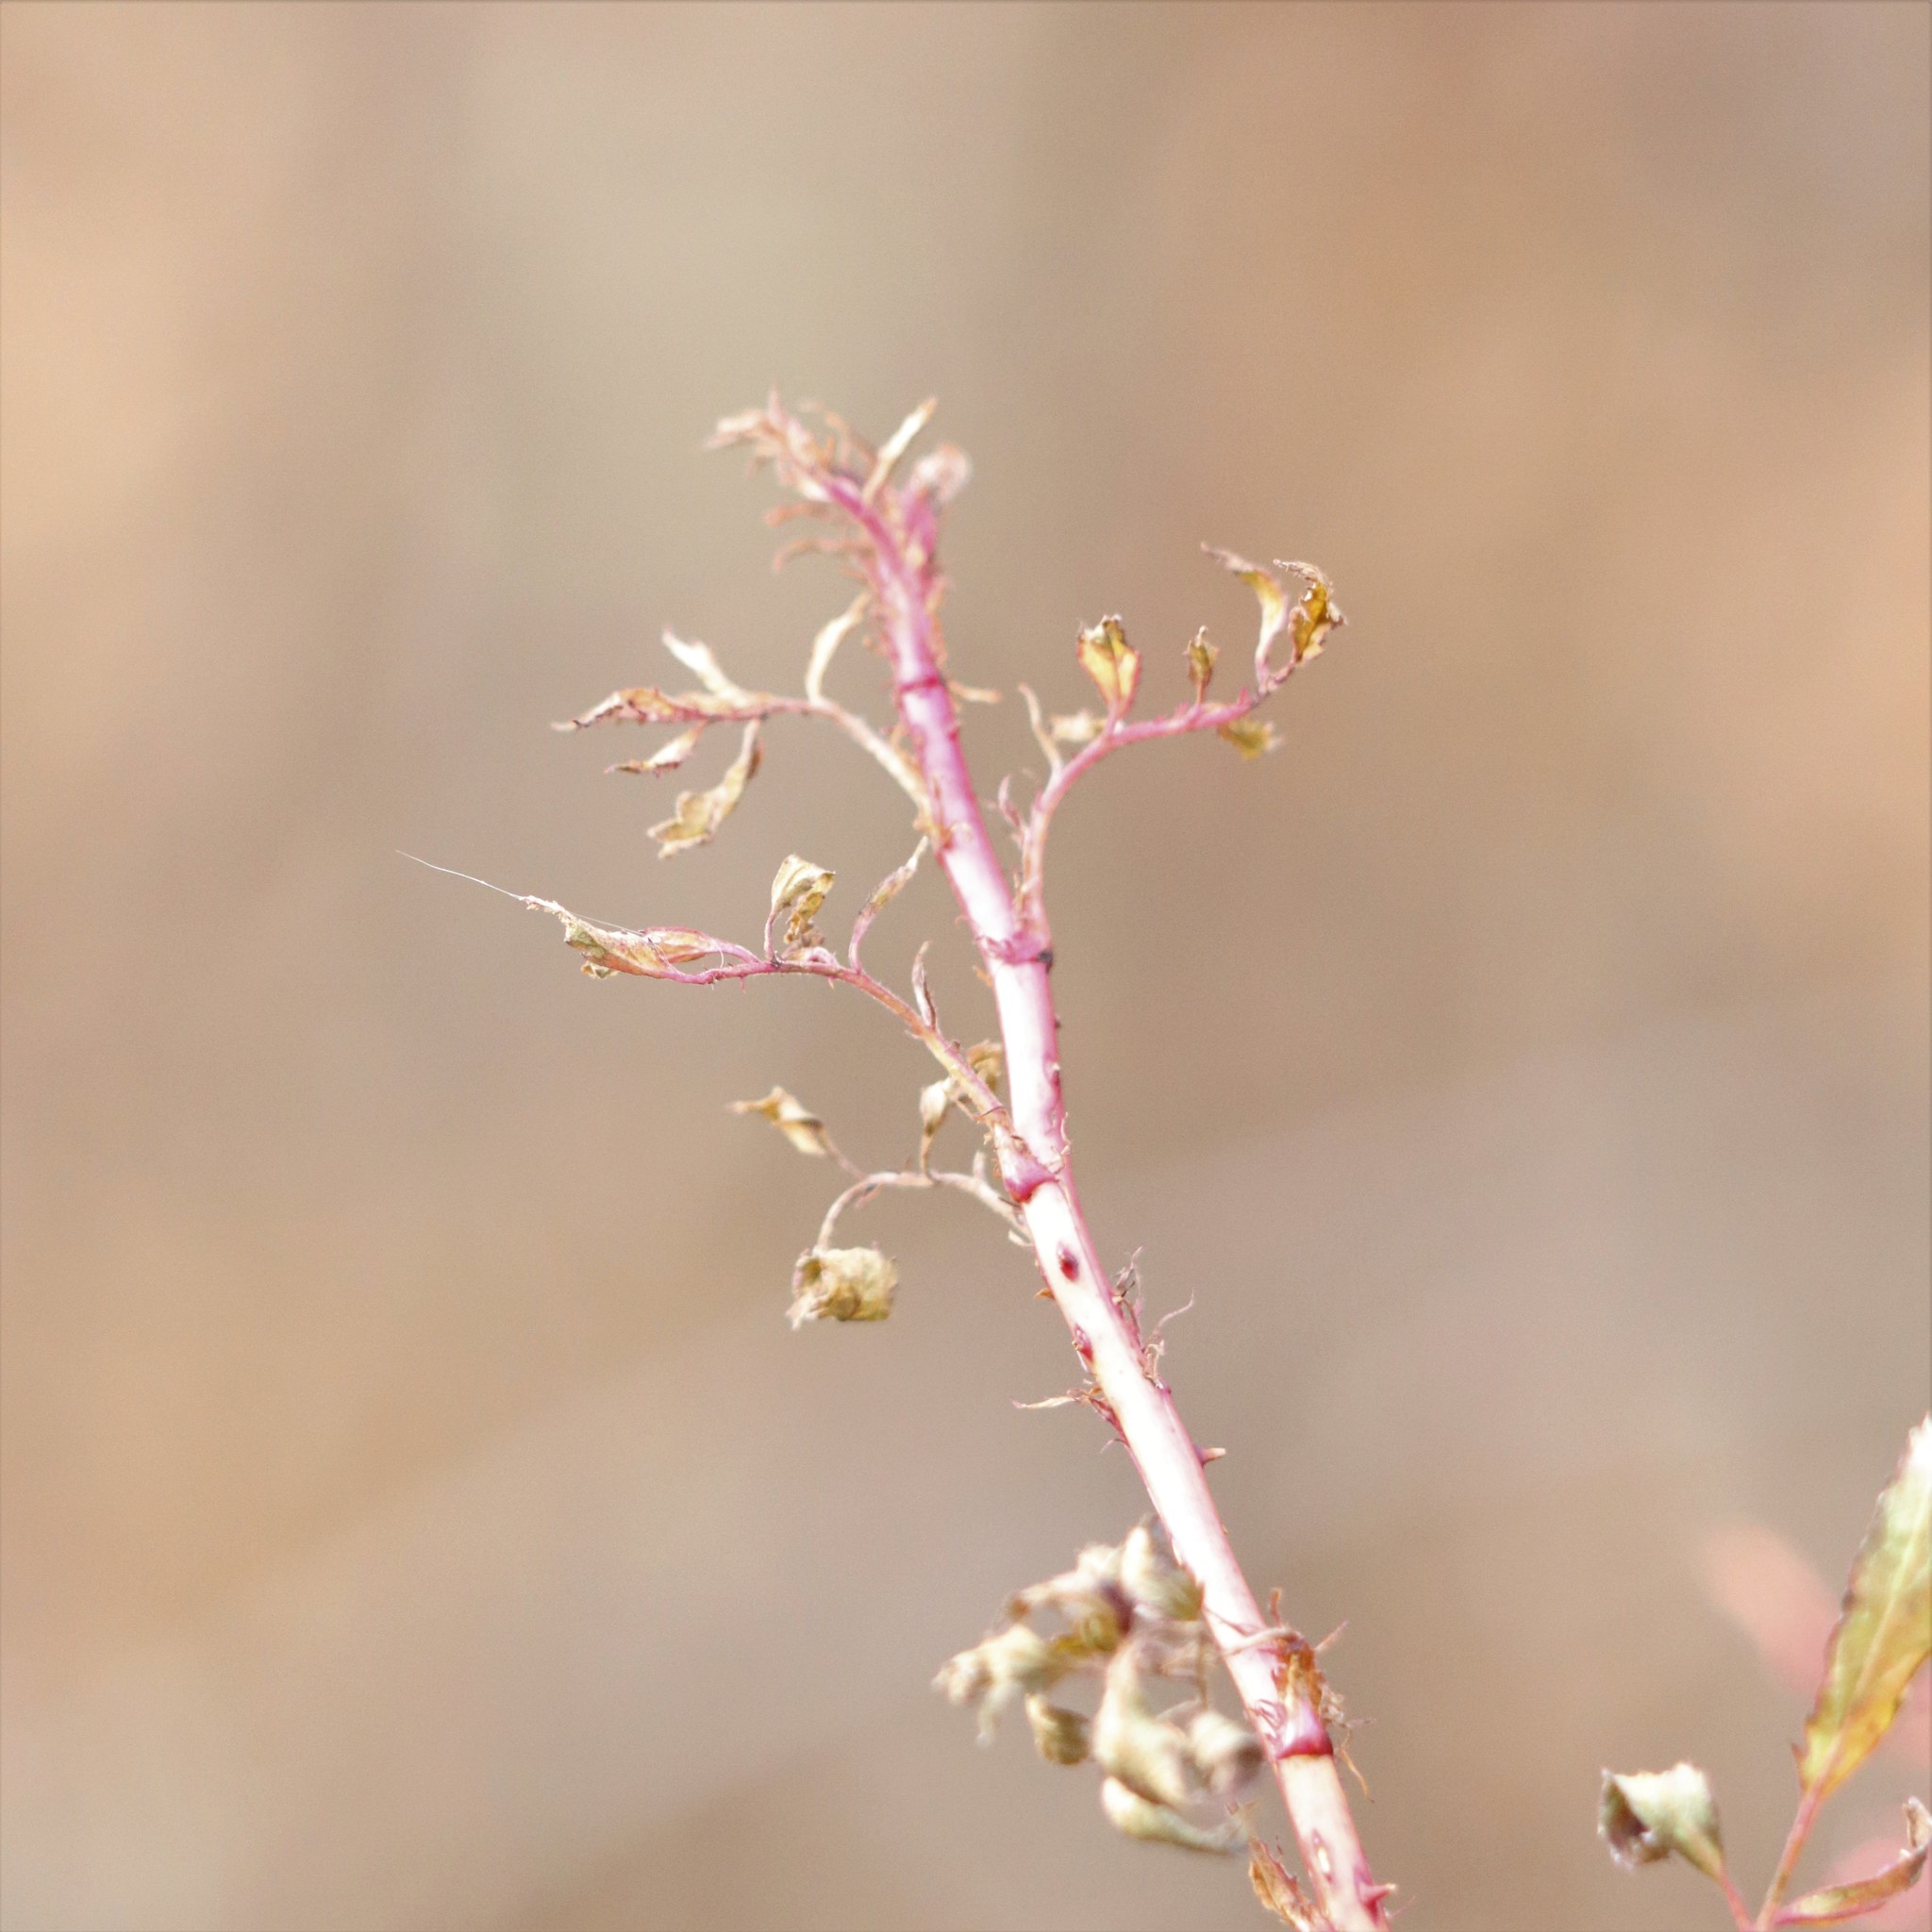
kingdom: Viruses
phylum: Negarnaviricota
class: Ellioviricetes
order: Bunyavirales
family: Fimoviridae
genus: Emaravirus
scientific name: Emaravirus rosae
